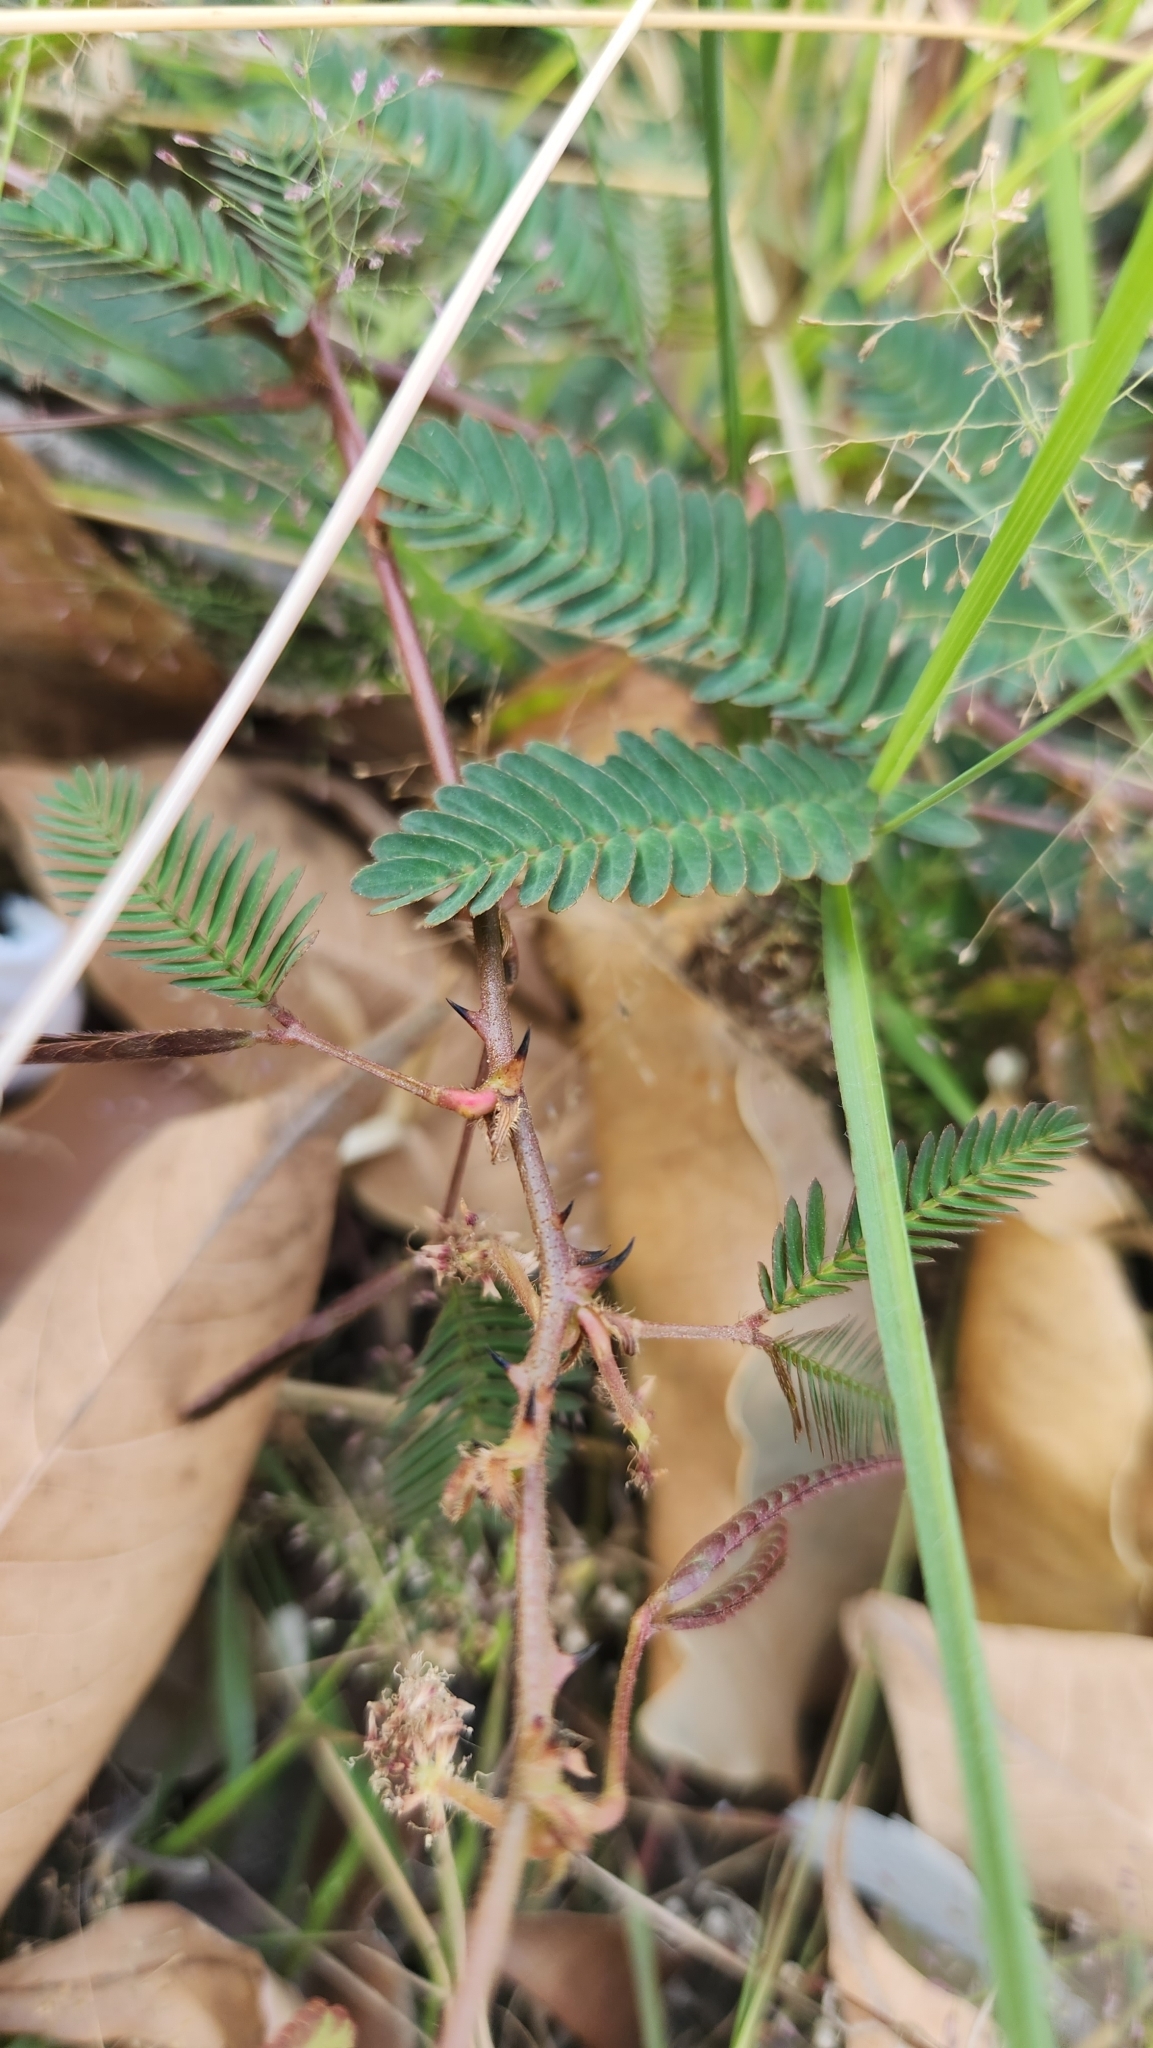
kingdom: Plantae
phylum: Tracheophyta
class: Magnoliopsida
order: Fabales
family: Fabaceae
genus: Mimosa
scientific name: Mimosa pudica
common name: Sensitive plant
